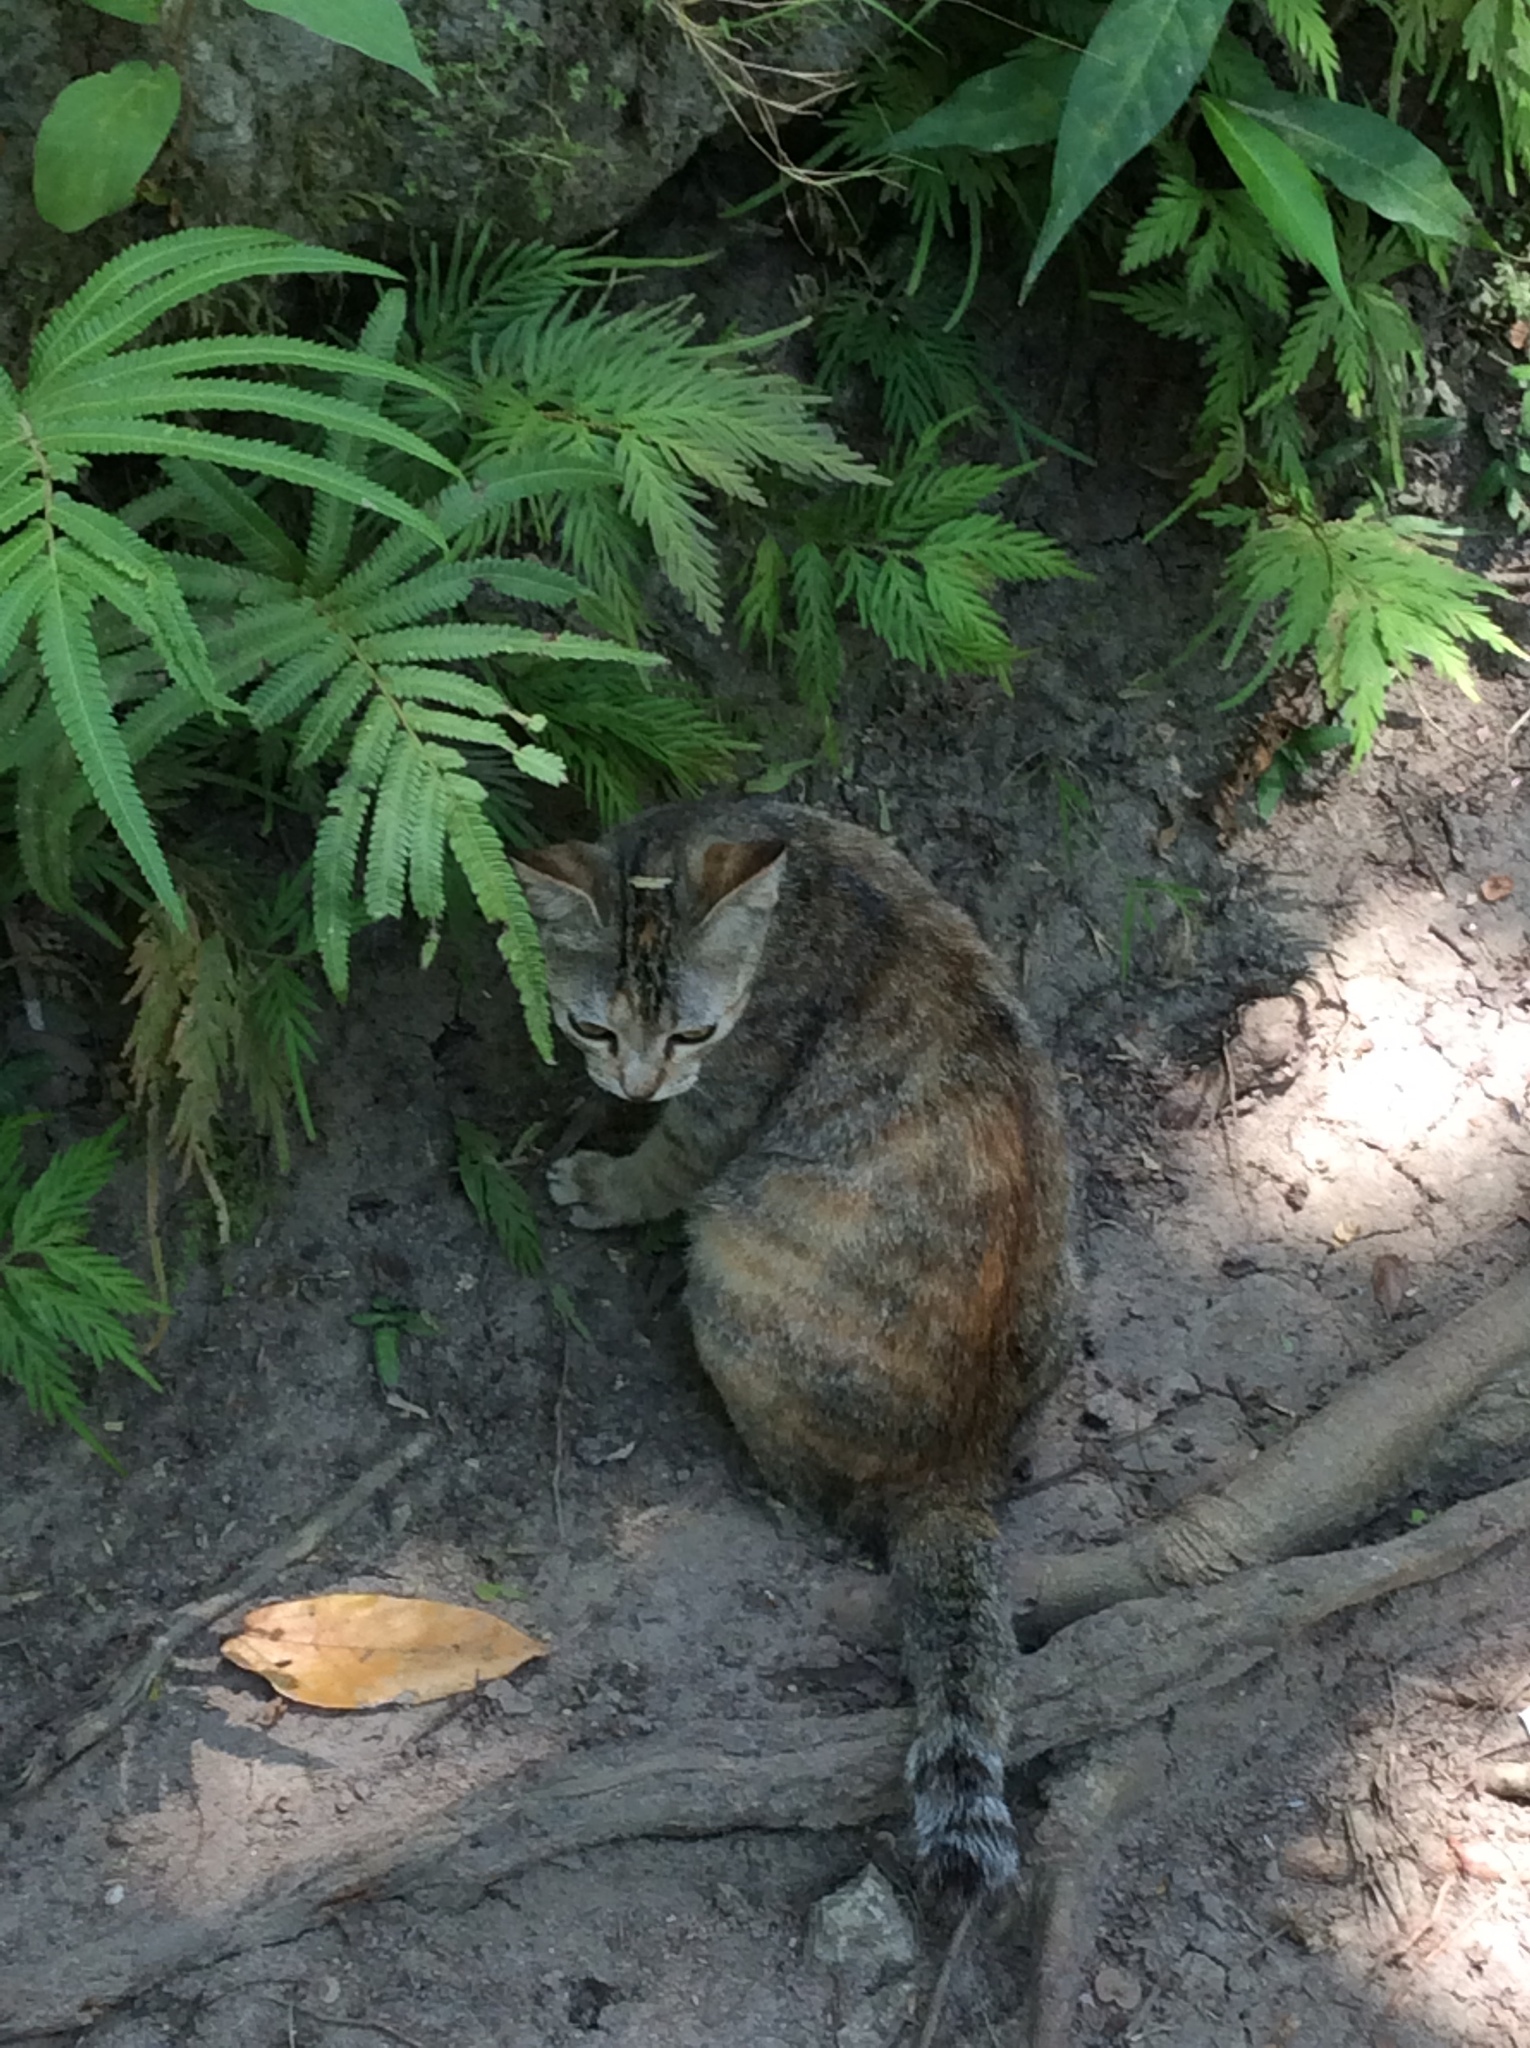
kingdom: Animalia
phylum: Chordata
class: Mammalia
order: Carnivora
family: Felidae
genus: Felis
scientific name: Felis catus
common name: Domestic cat
